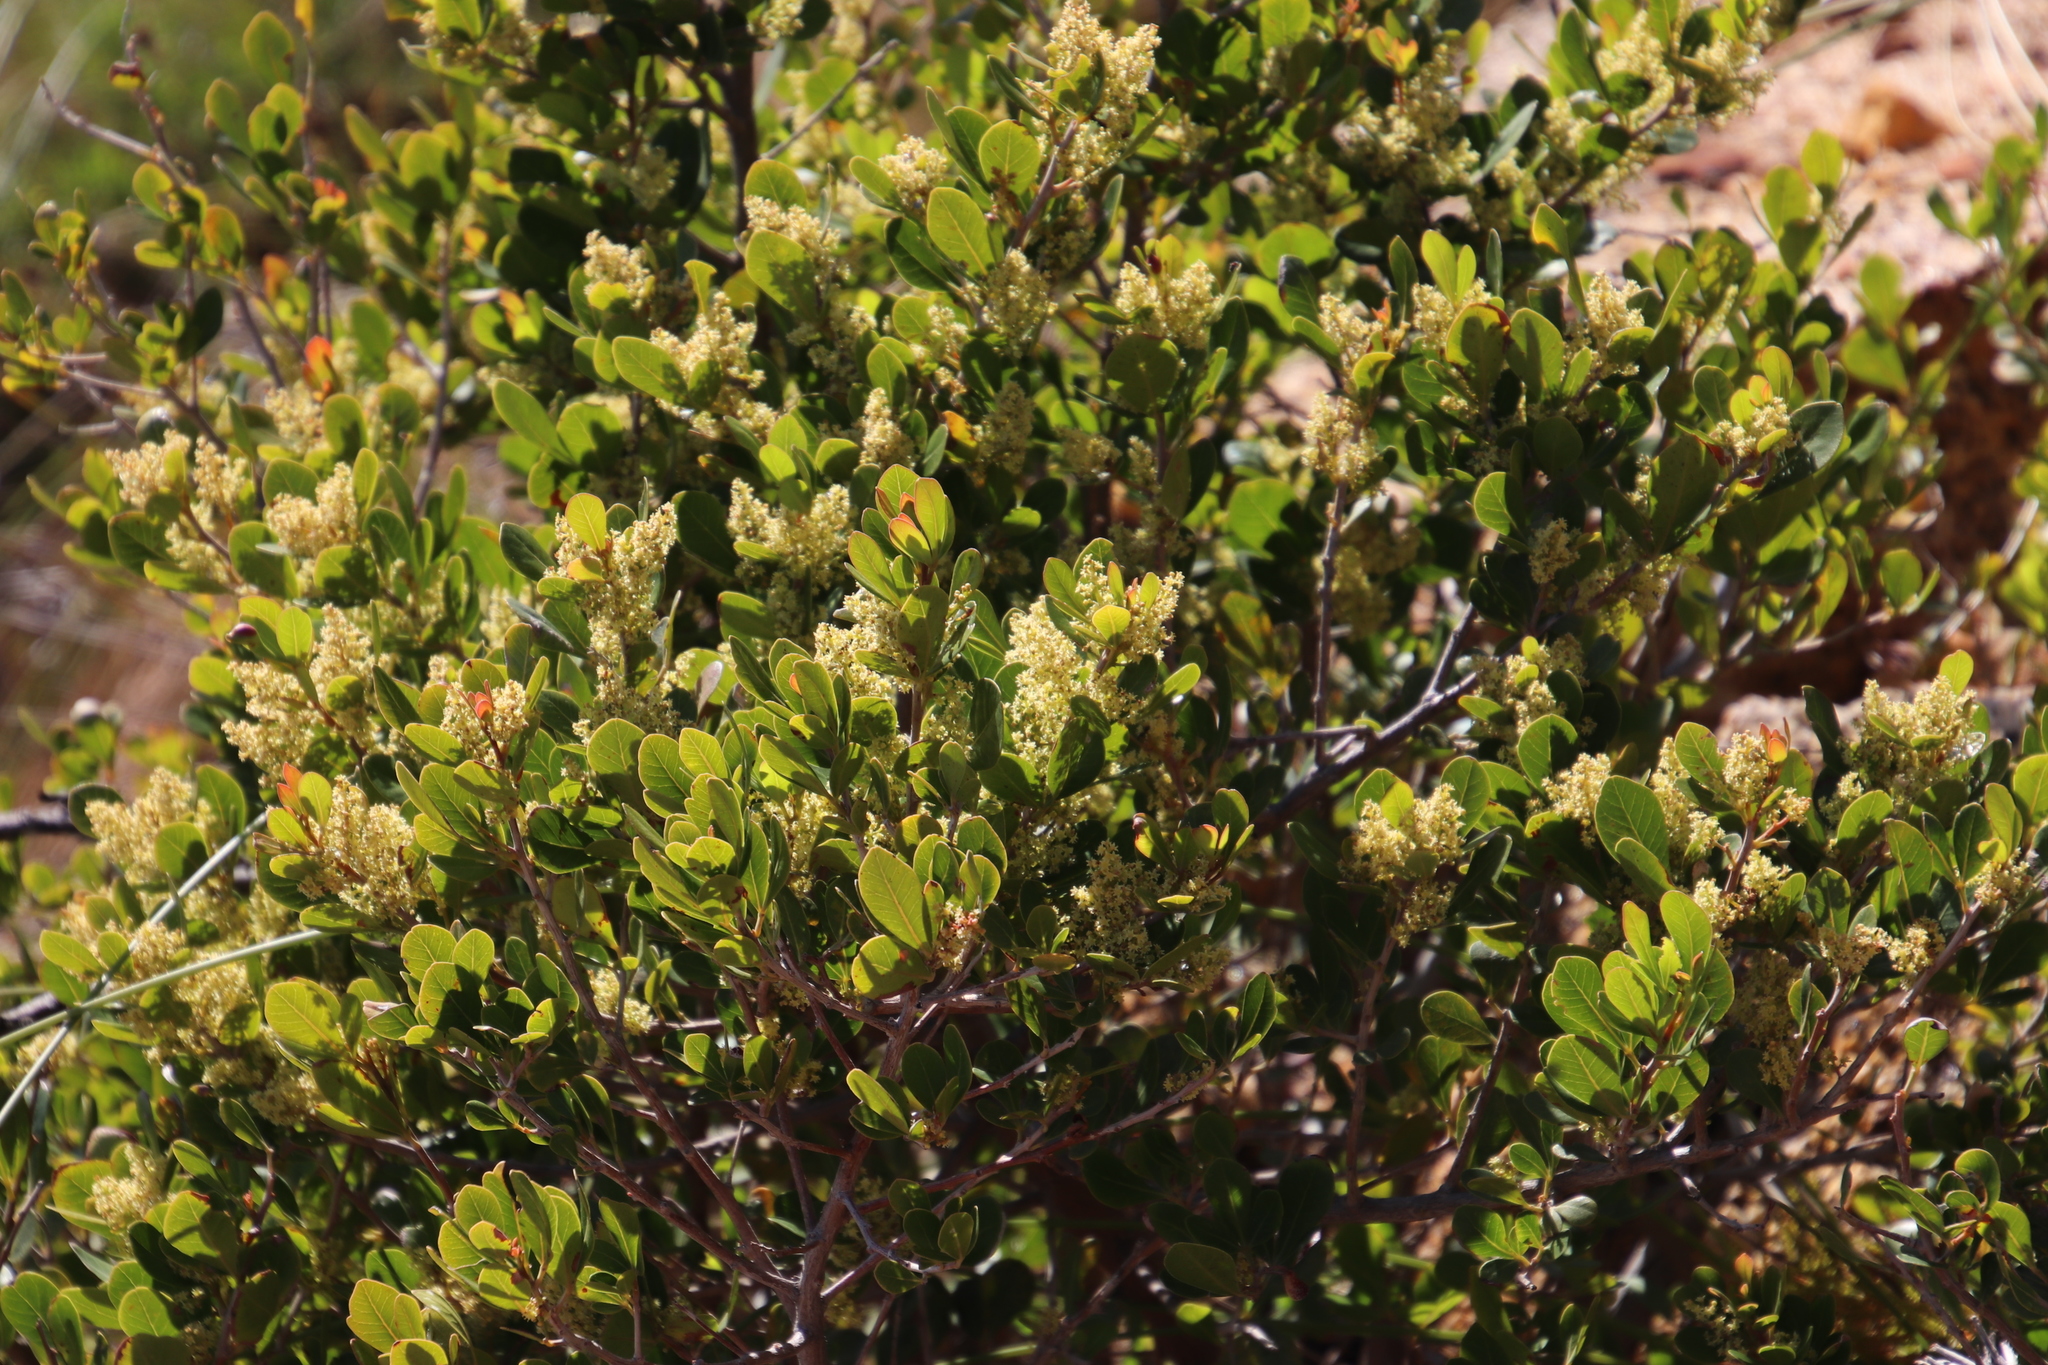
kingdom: Plantae
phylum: Tracheophyta
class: Magnoliopsida
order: Sapindales
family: Anacardiaceae
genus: Searsia
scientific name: Searsia lucida
